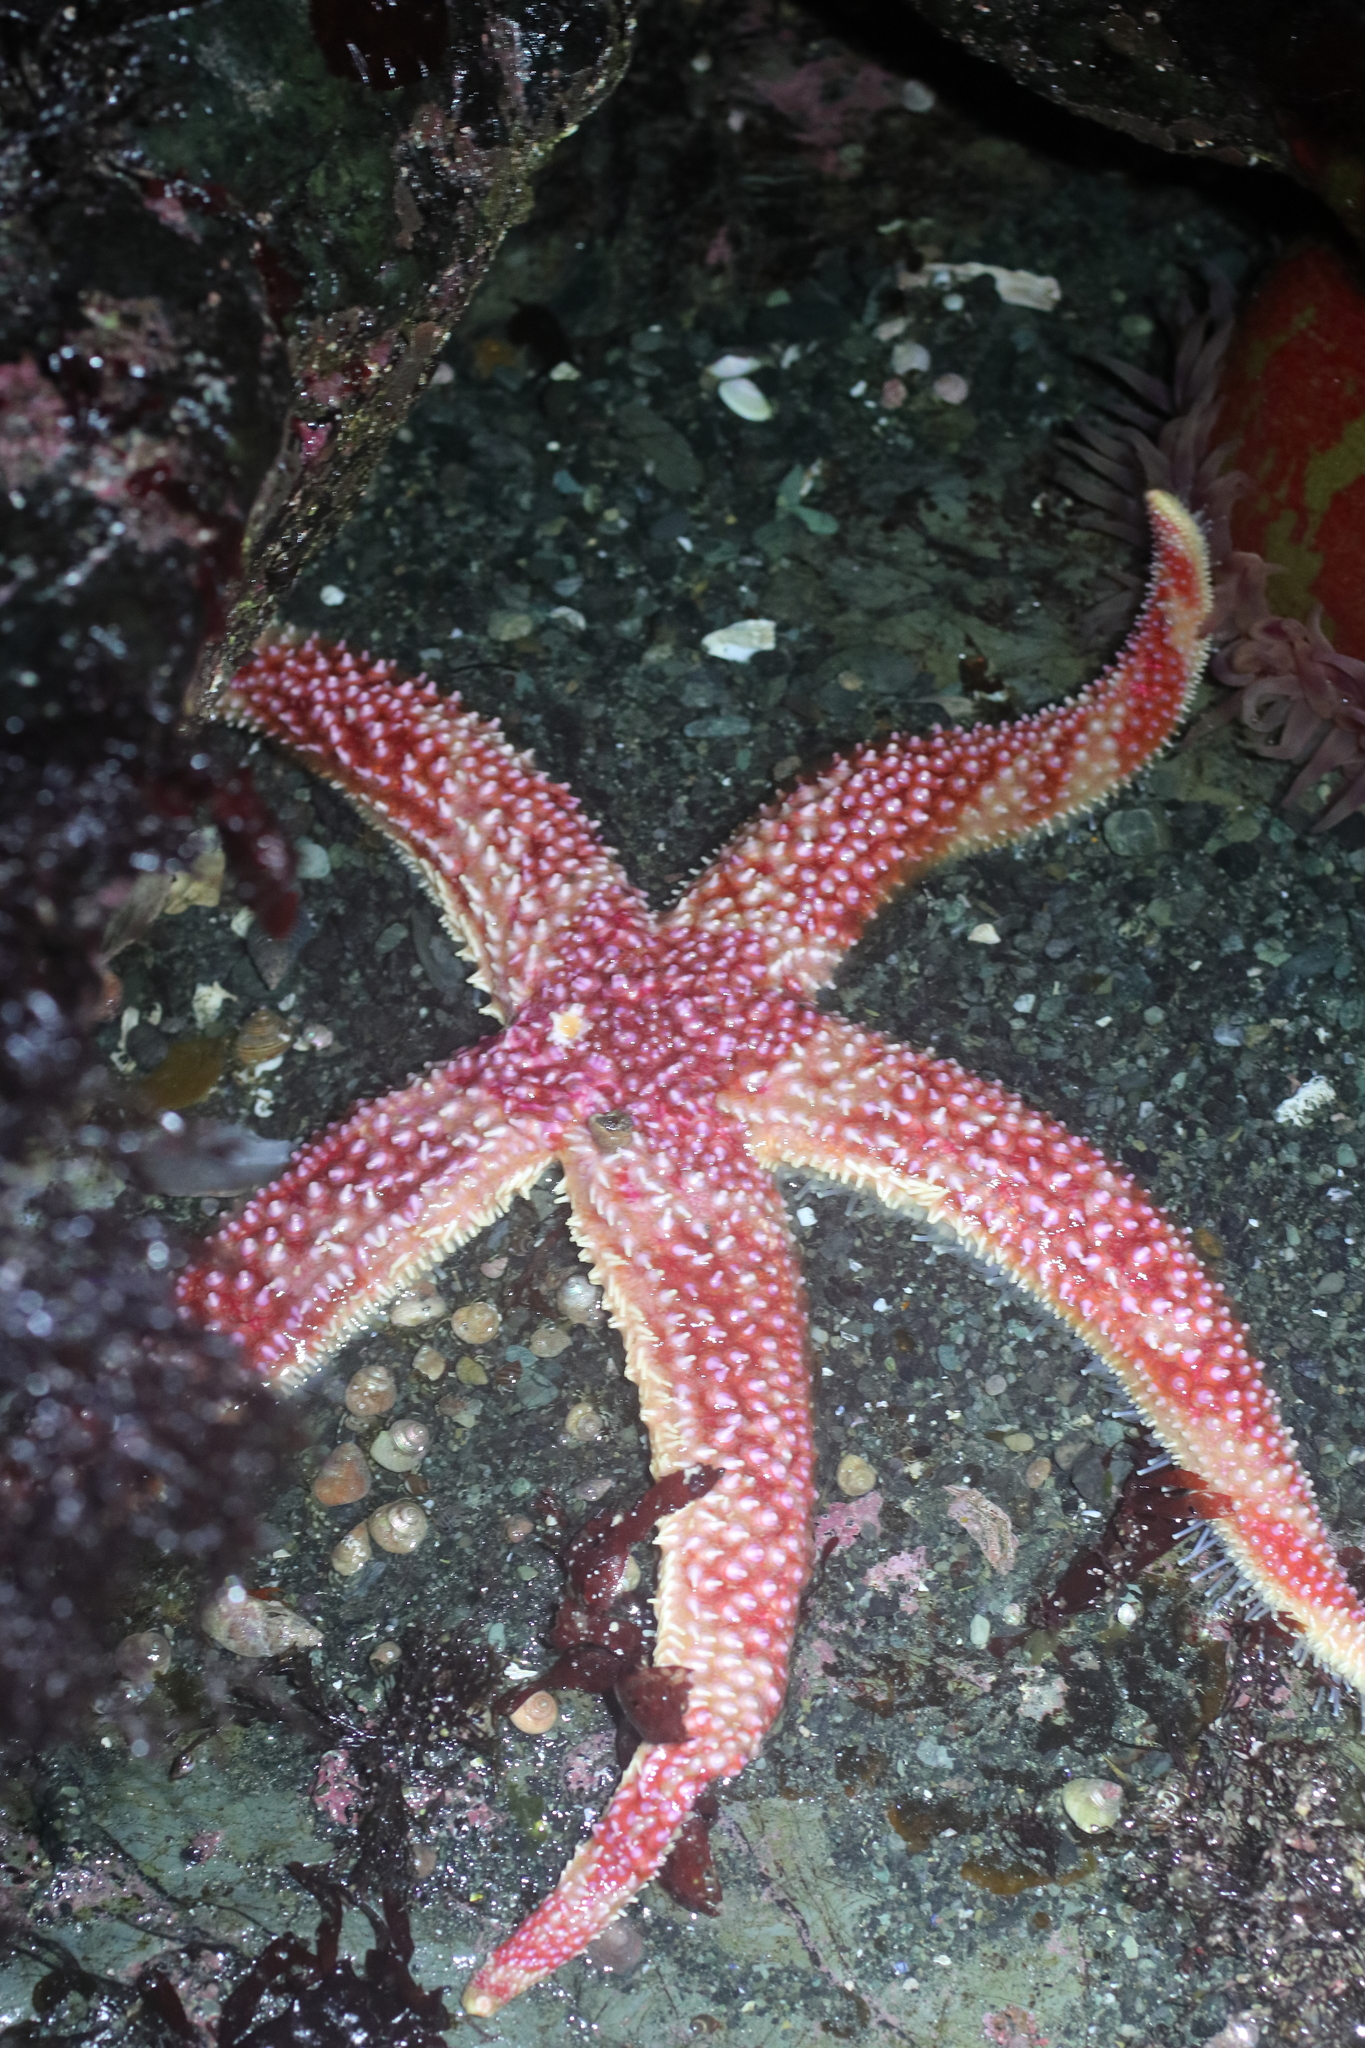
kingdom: Animalia
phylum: Echinodermata
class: Asteroidea
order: Forcipulatida
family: Asteriidae
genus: Orthasterias
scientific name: Orthasterias koehleri
